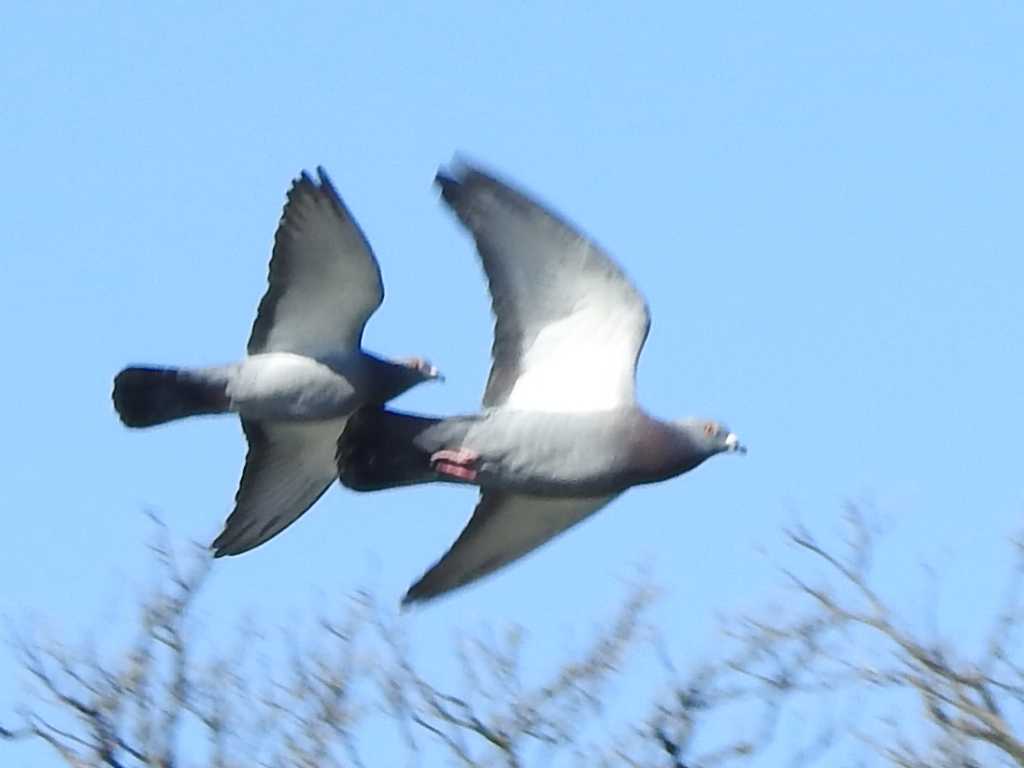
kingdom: Animalia
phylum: Chordata
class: Aves
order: Columbiformes
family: Columbidae
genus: Columba
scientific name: Columba livia
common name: Rock pigeon
